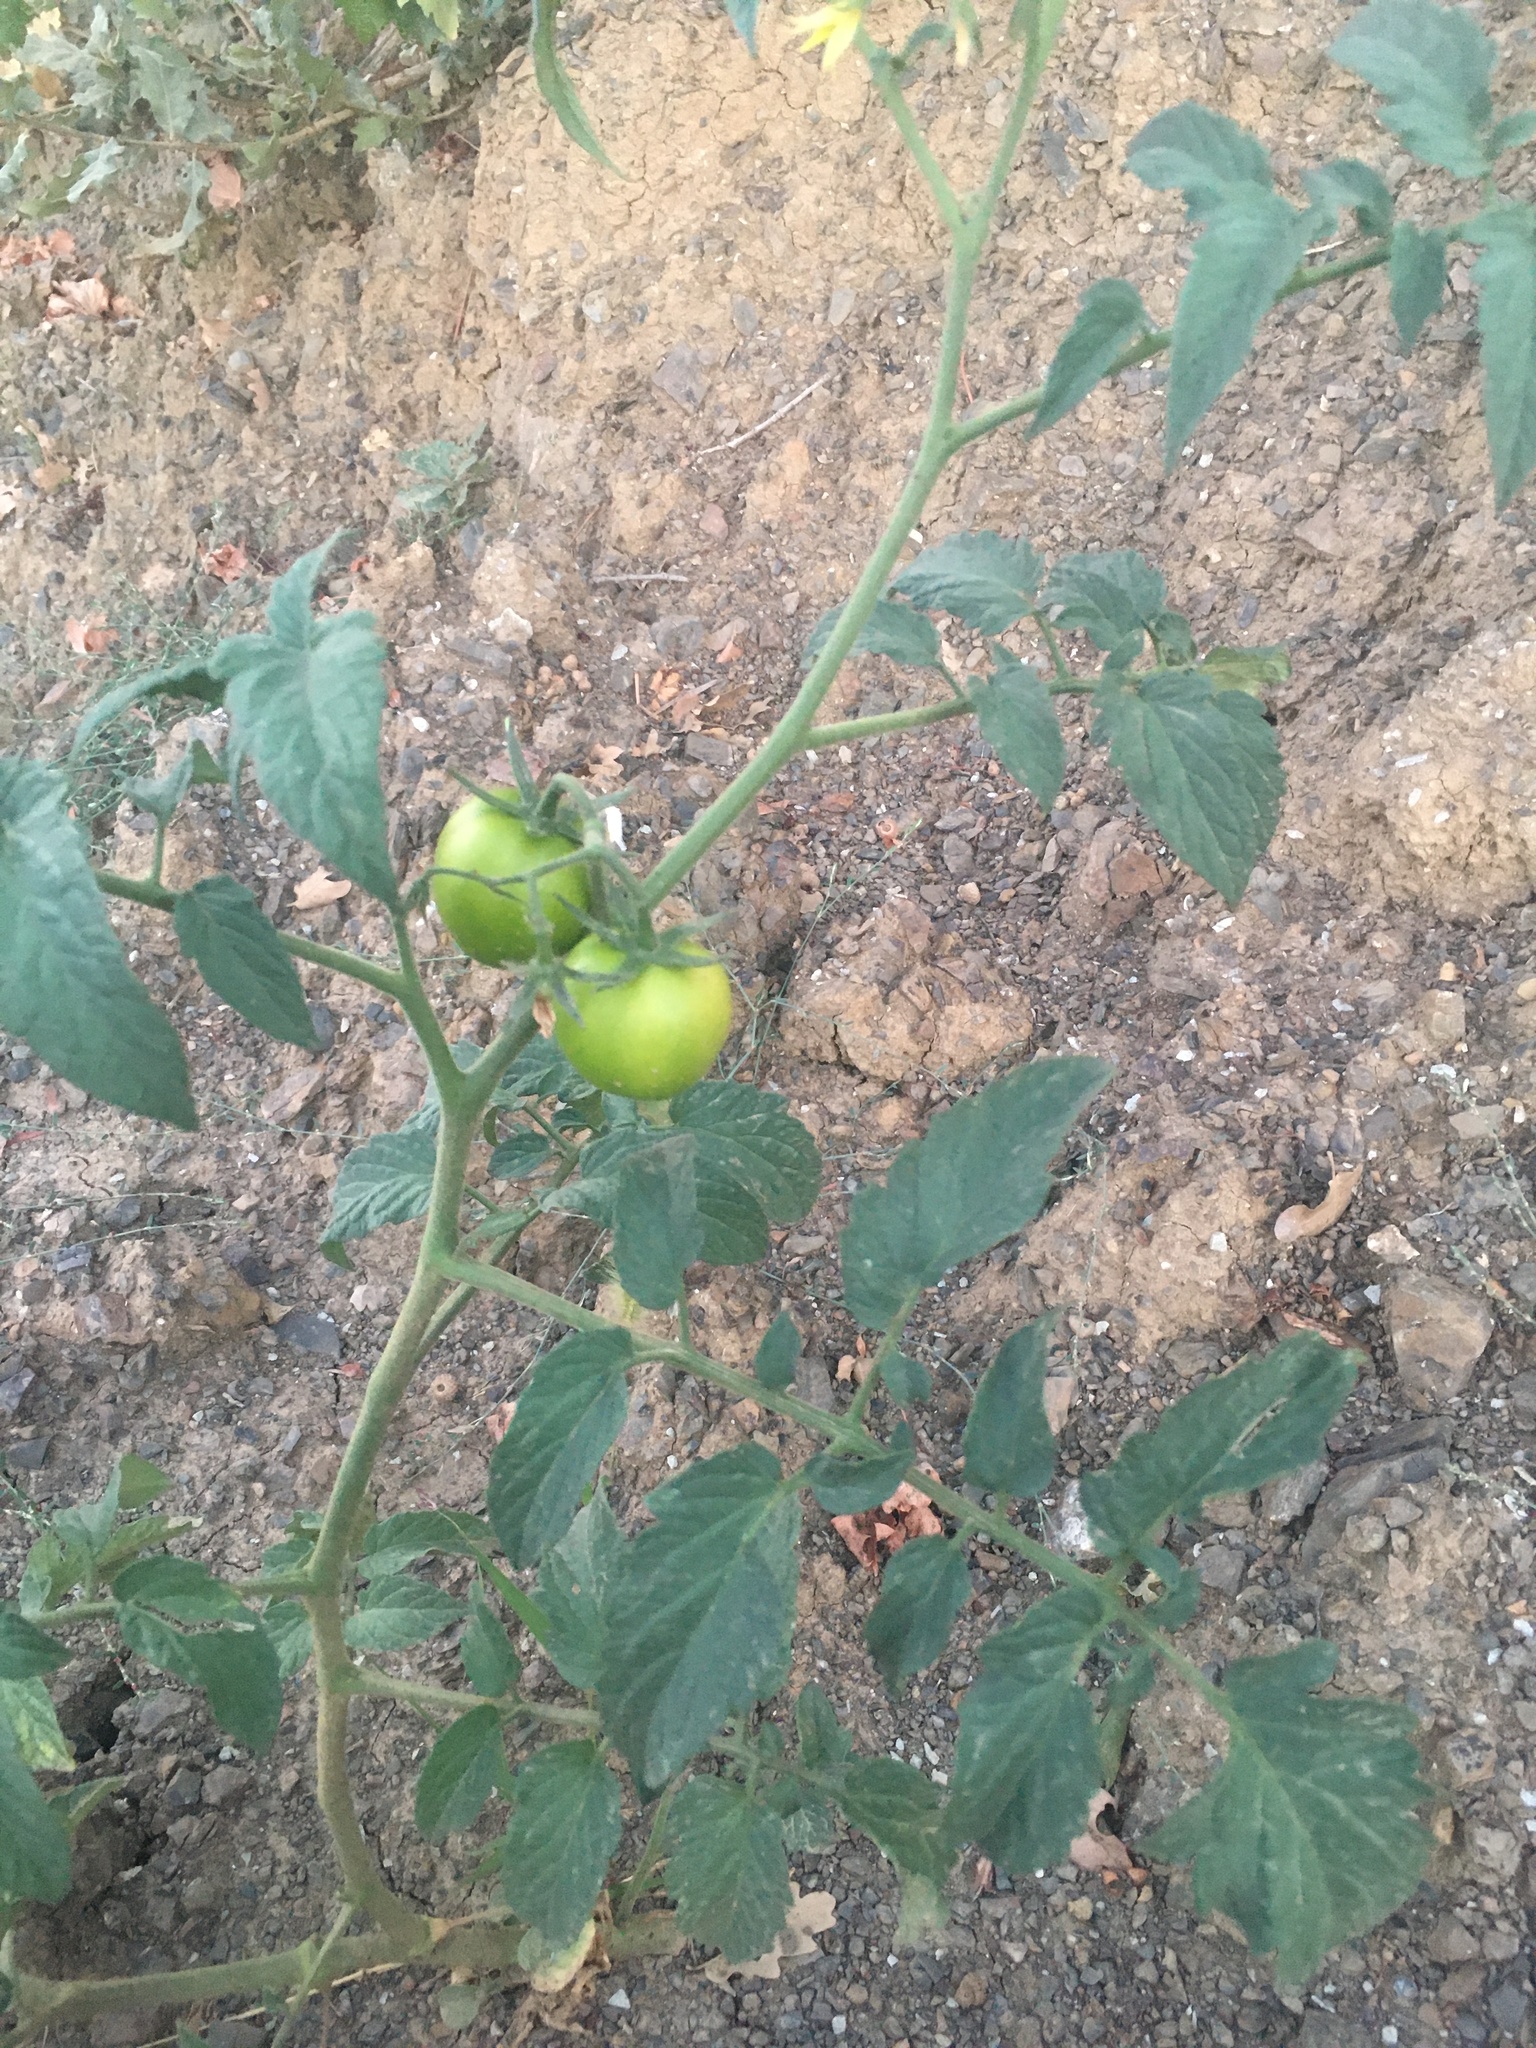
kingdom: Plantae
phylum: Tracheophyta
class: Magnoliopsida
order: Solanales
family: Solanaceae
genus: Solanum
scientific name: Solanum lycopersicum
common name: Garden tomato
